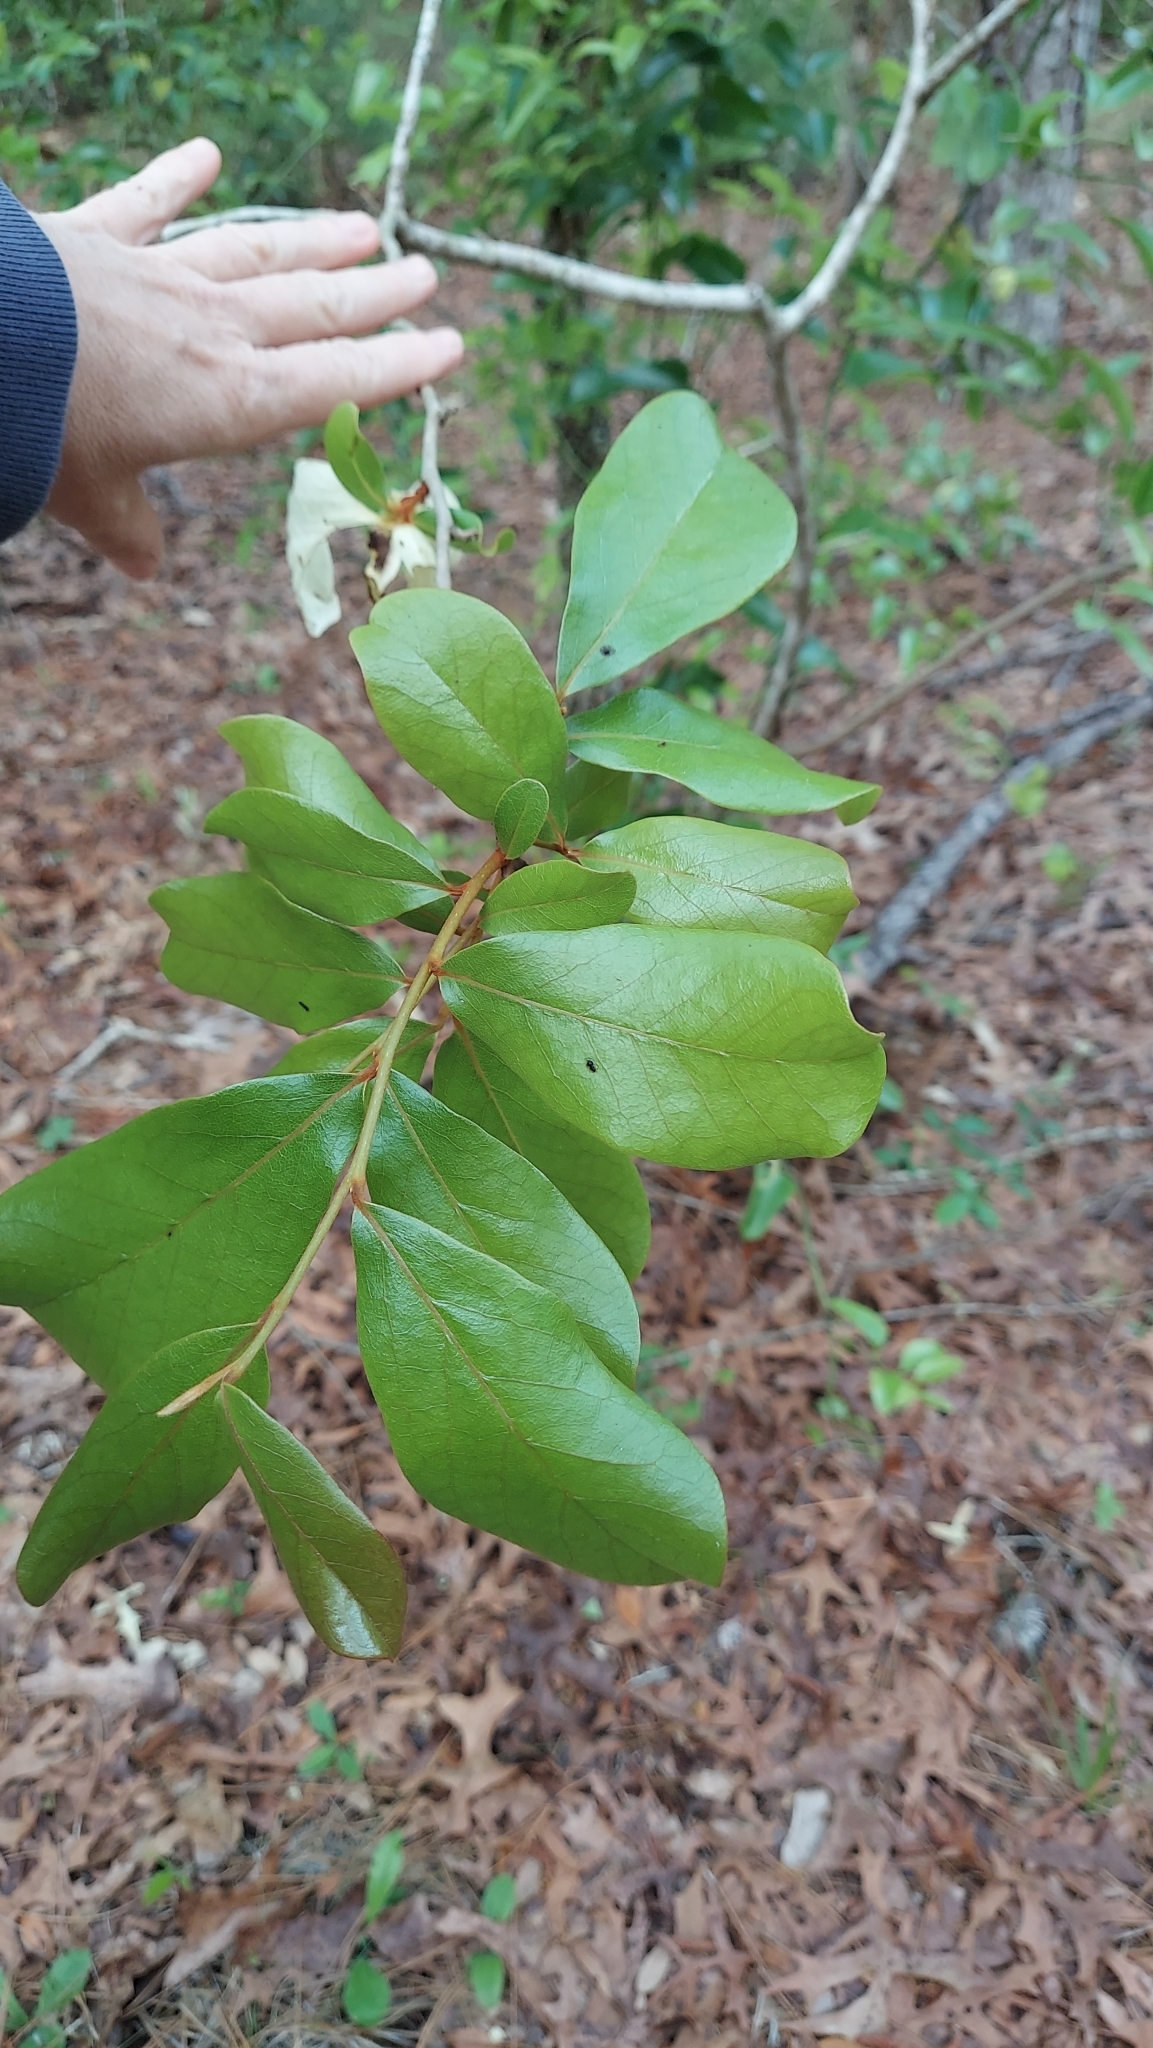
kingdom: Plantae
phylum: Tracheophyta
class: Magnoliopsida
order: Magnoliales
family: Annonaceae
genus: Asimina
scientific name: Asimina obovata
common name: Flag pawpaw
